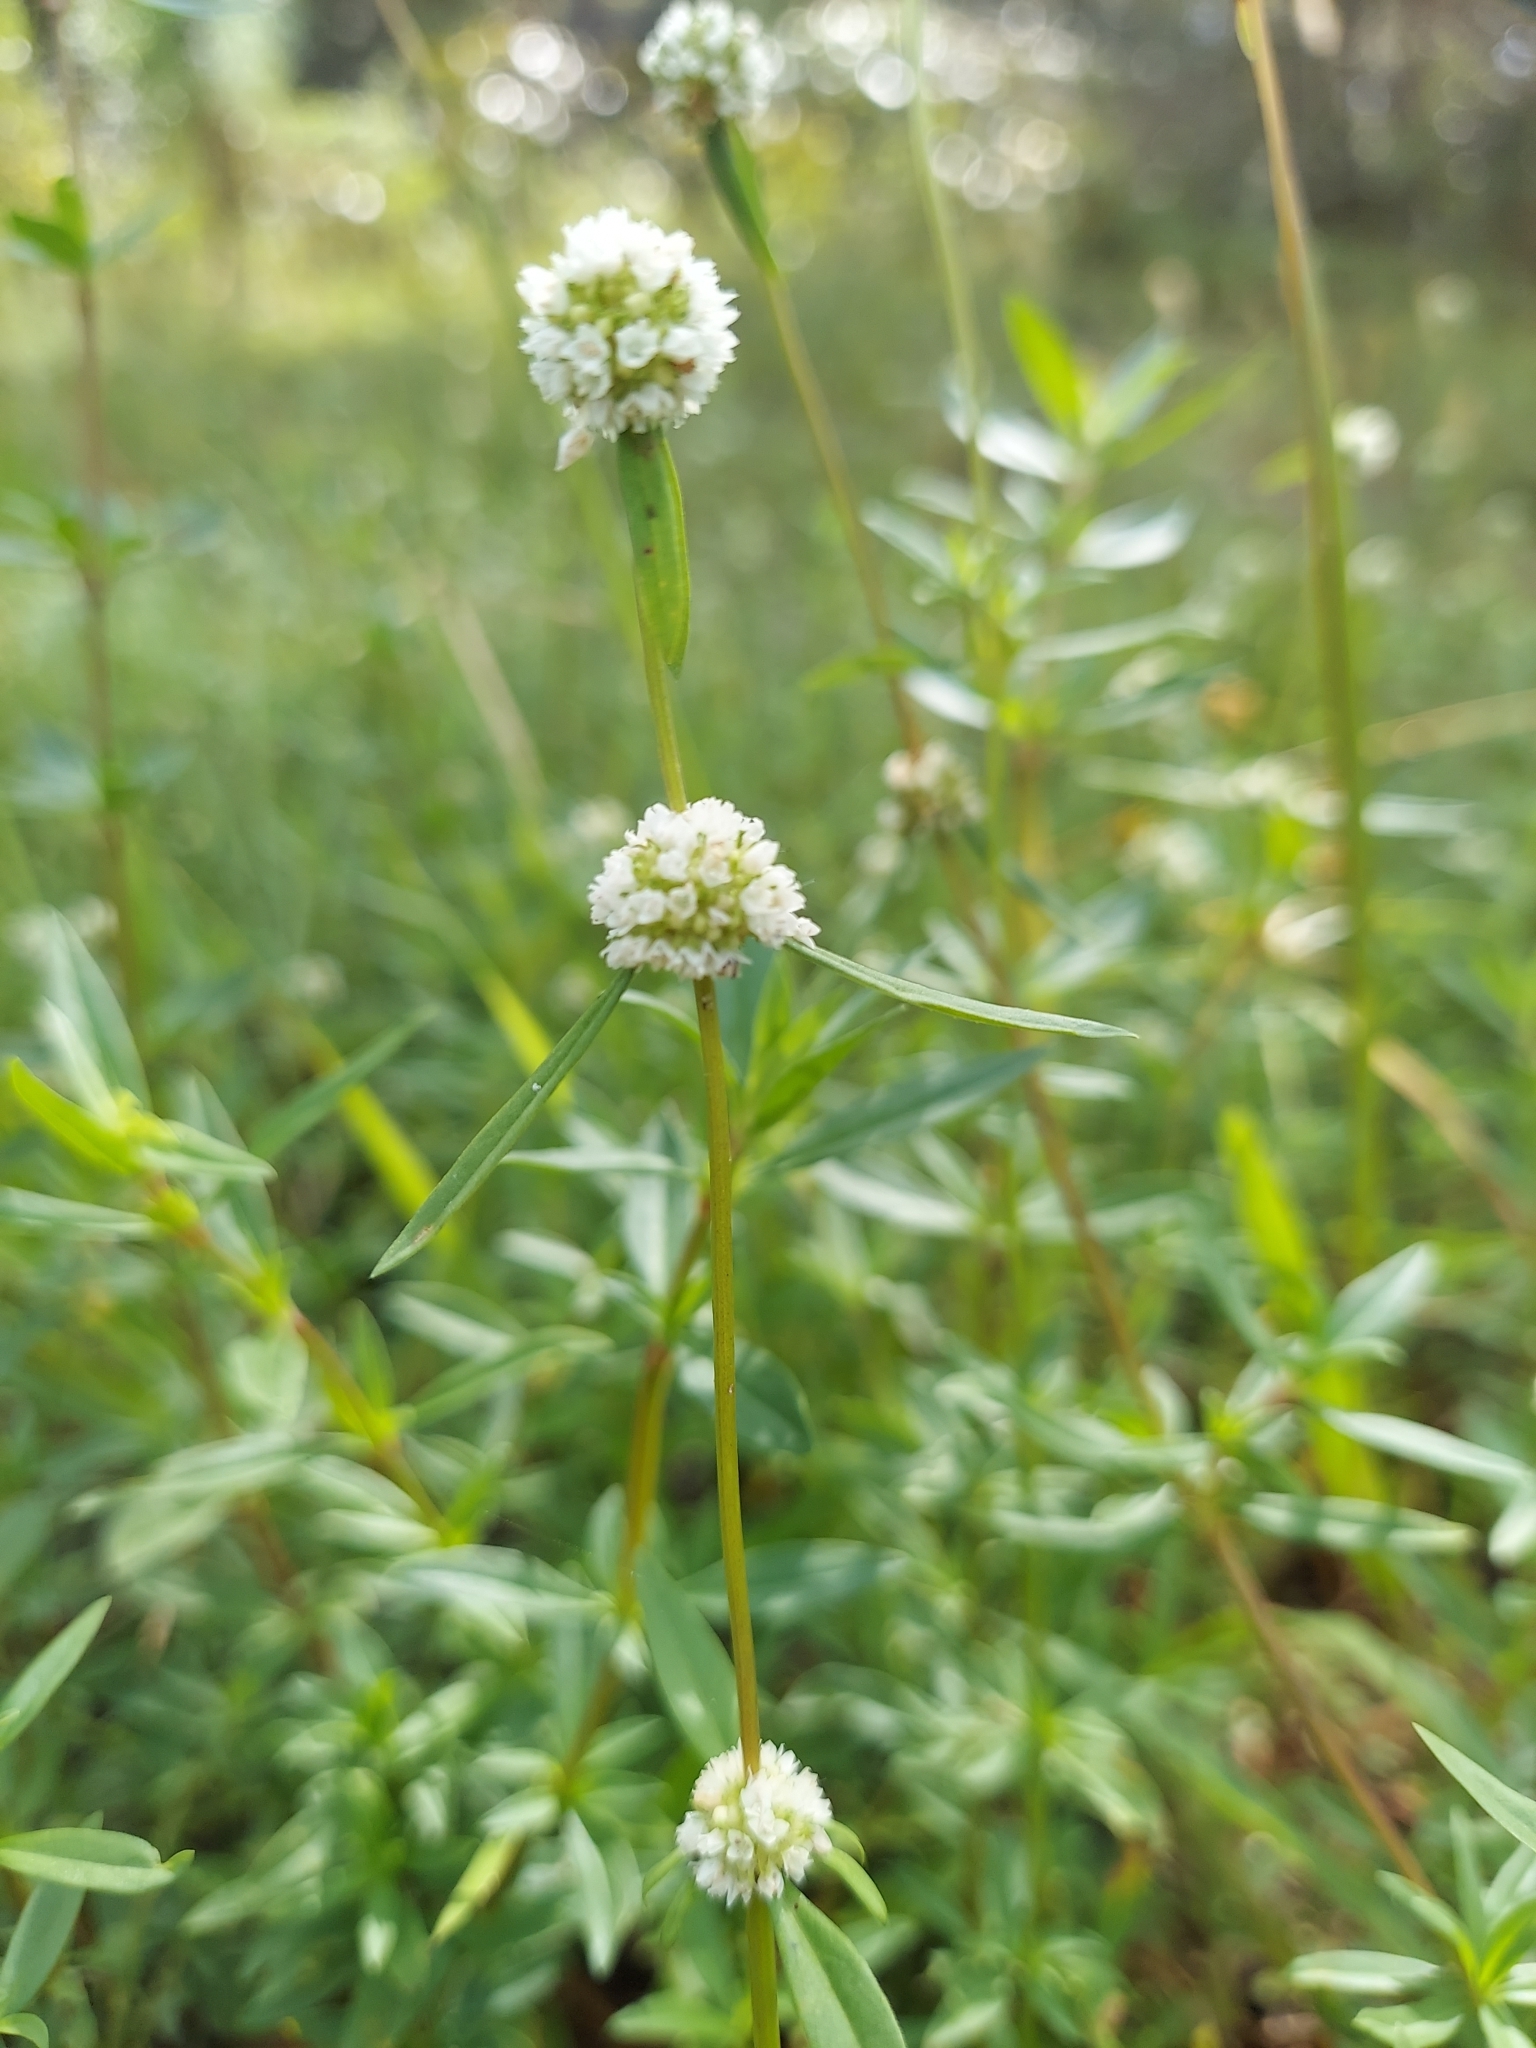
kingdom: Plantae
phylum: Tracheophyta
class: Magnoliopsida
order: Gentianales
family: Rubiaceae
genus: Spermacoce
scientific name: Spermacoce verticillata
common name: Shrubby false buttonweed
